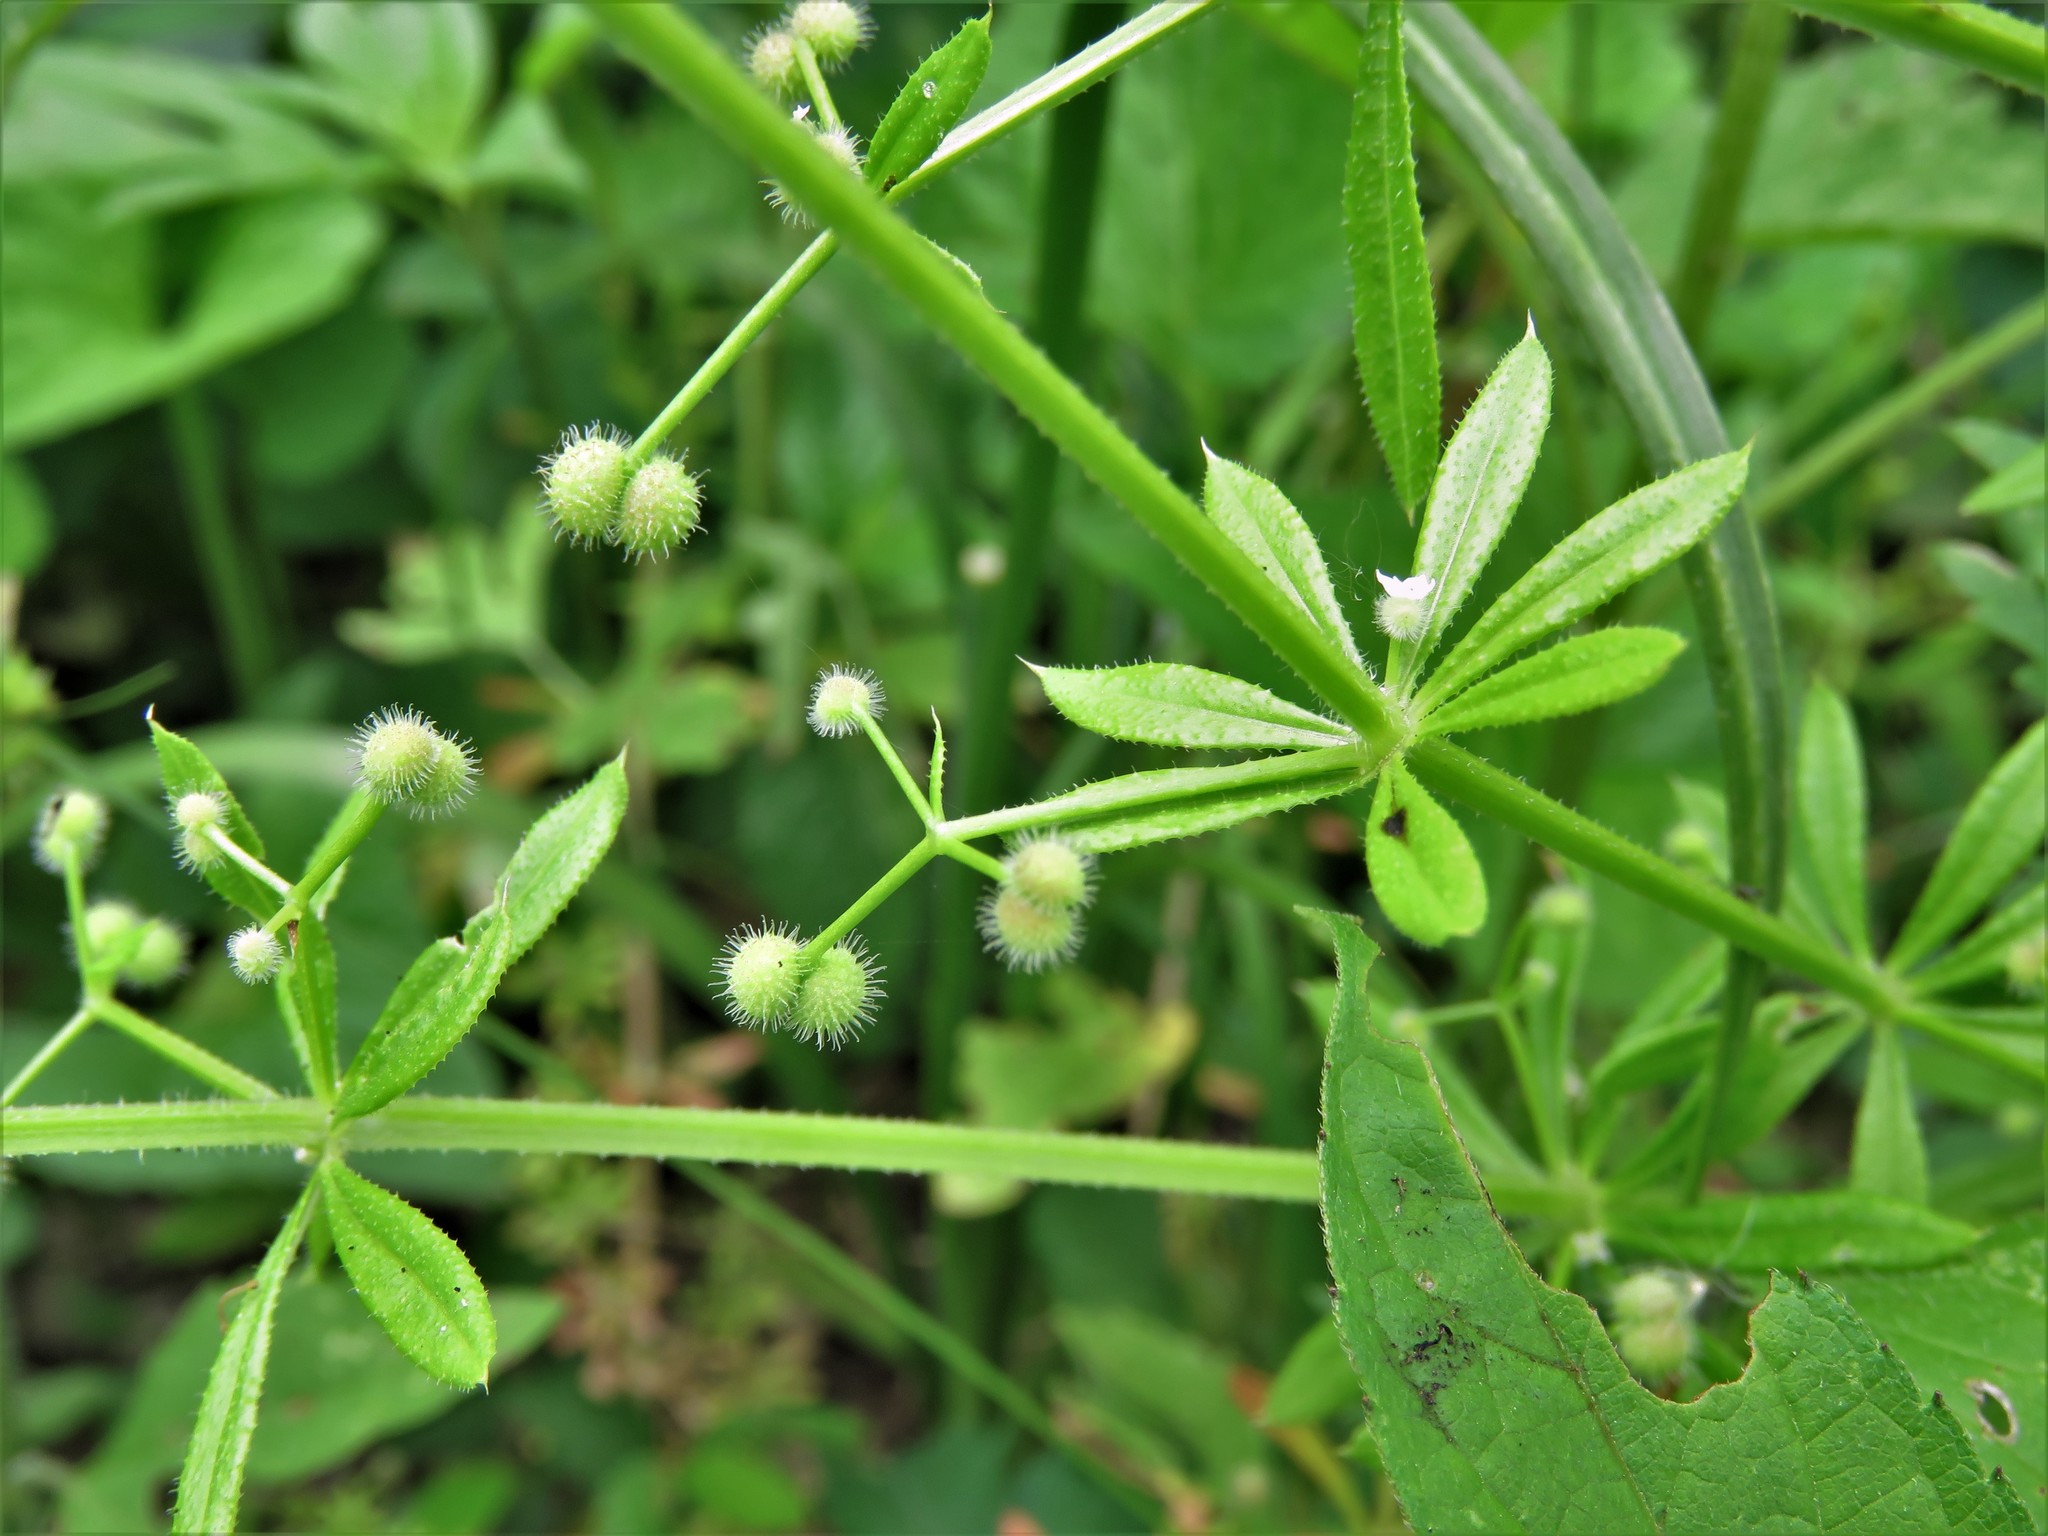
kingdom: Plantae
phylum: Tracheophyta
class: Magnoliopsida
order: Gentianales
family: Rubiaceae
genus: Galium
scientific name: Galium aparine
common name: Cleavers
